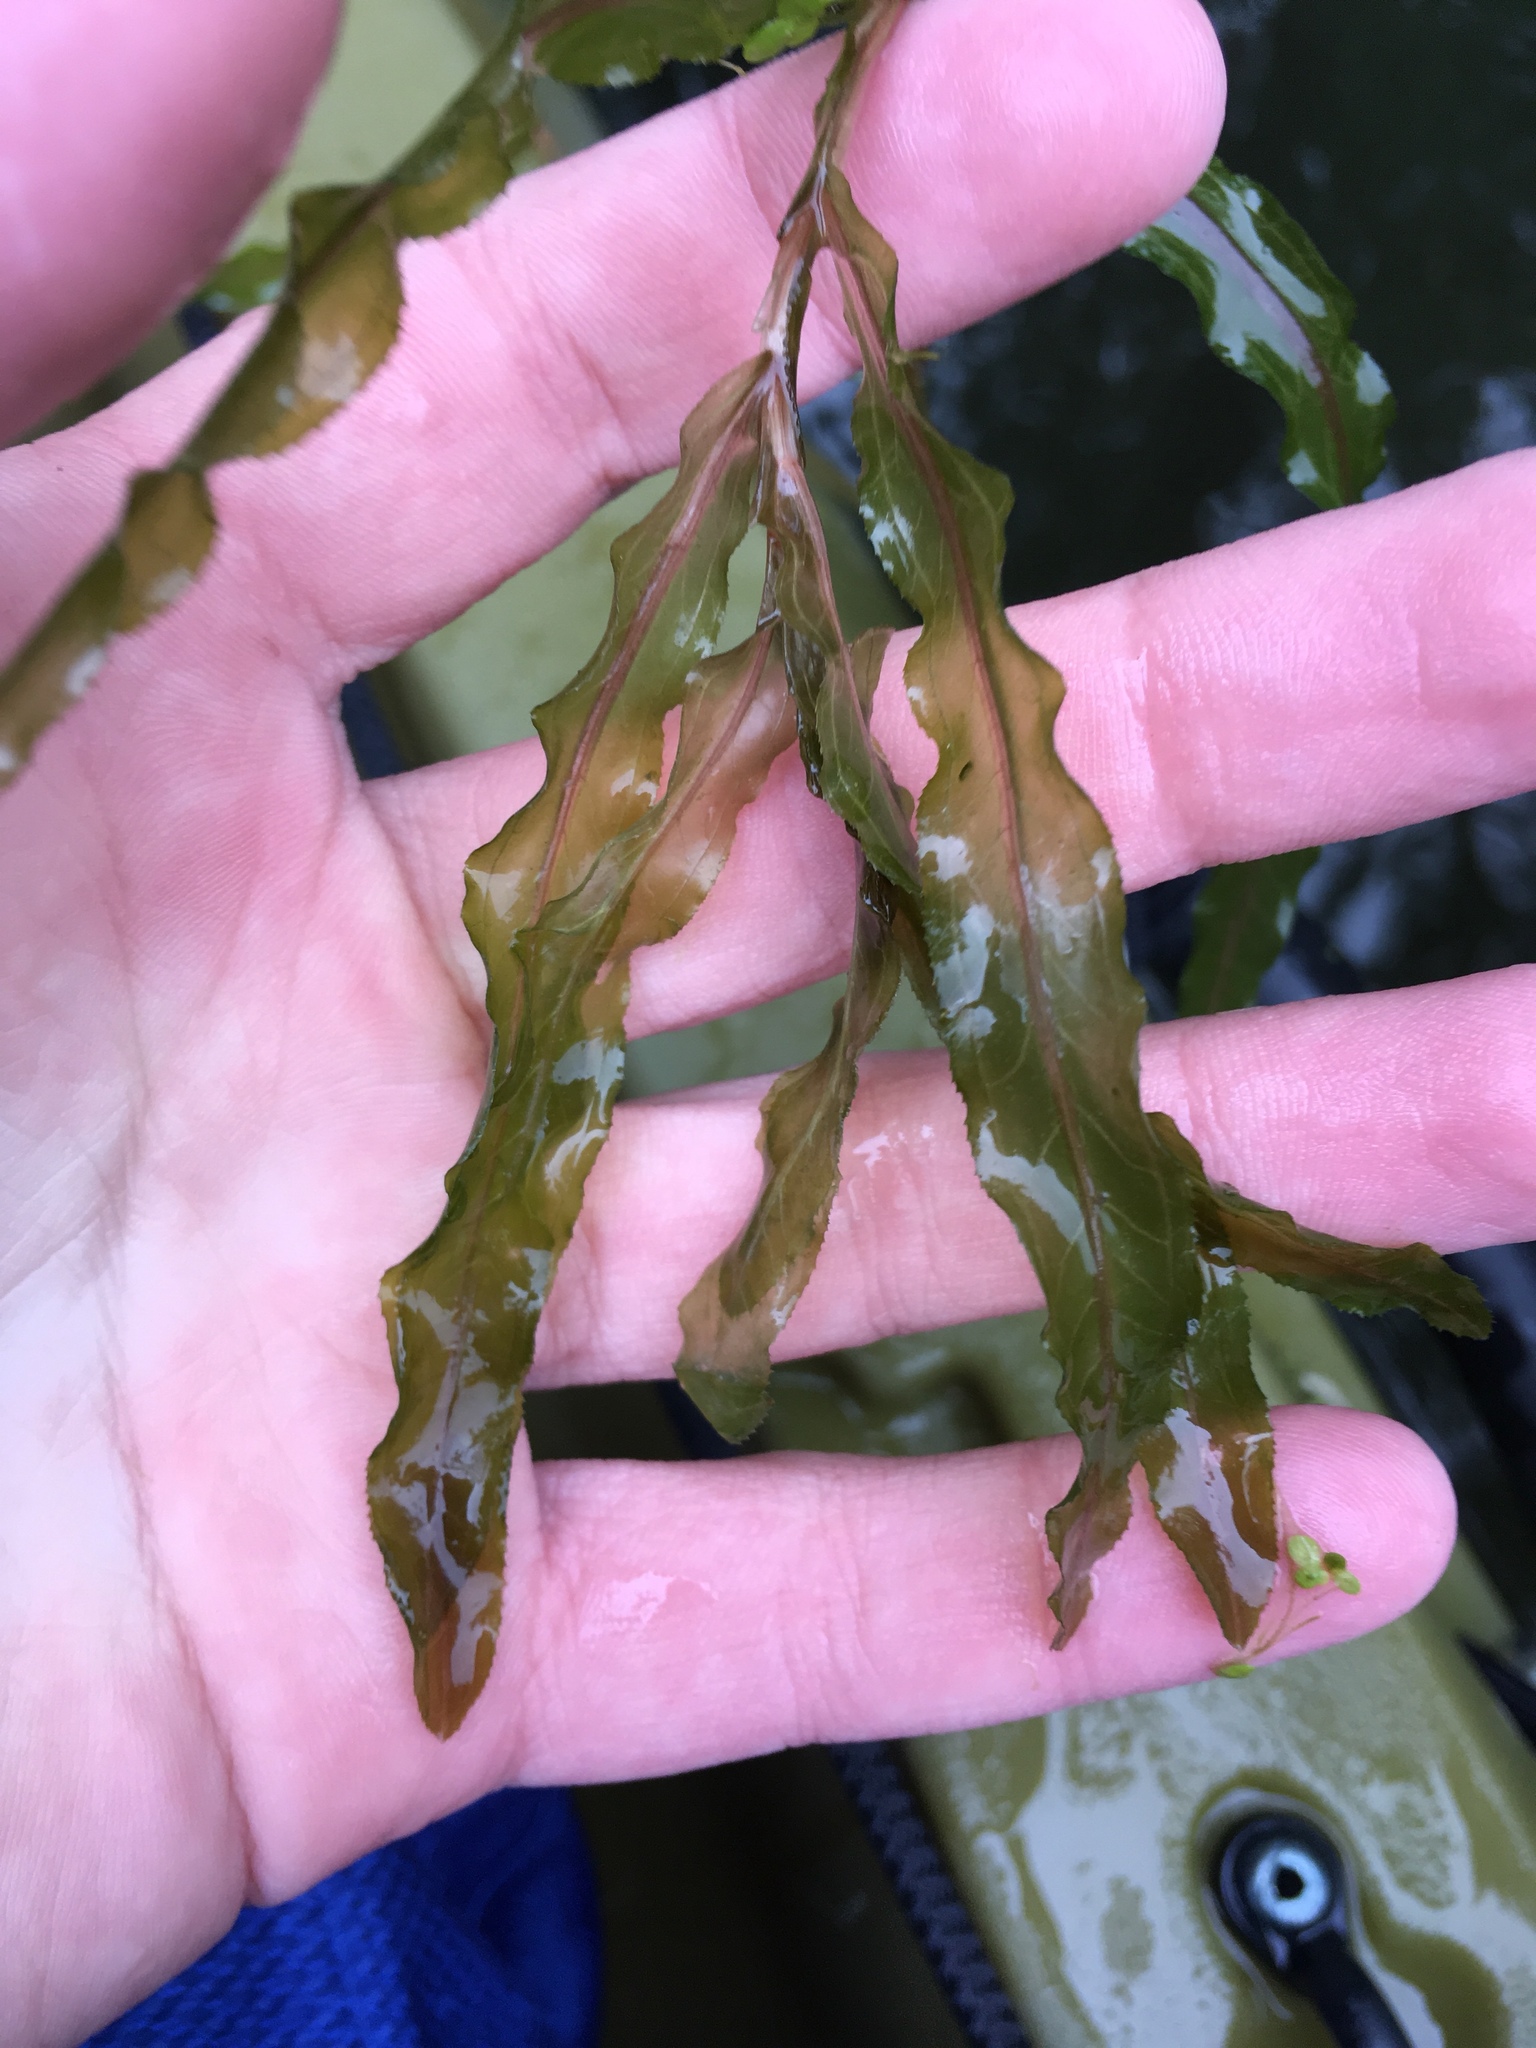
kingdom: Plantae
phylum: Tracheophyta
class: Liliopsida
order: Alismatales
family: Potamogetonaceae
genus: Potamogeton
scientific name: Potamogeton crispus
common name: Curled pondweed
